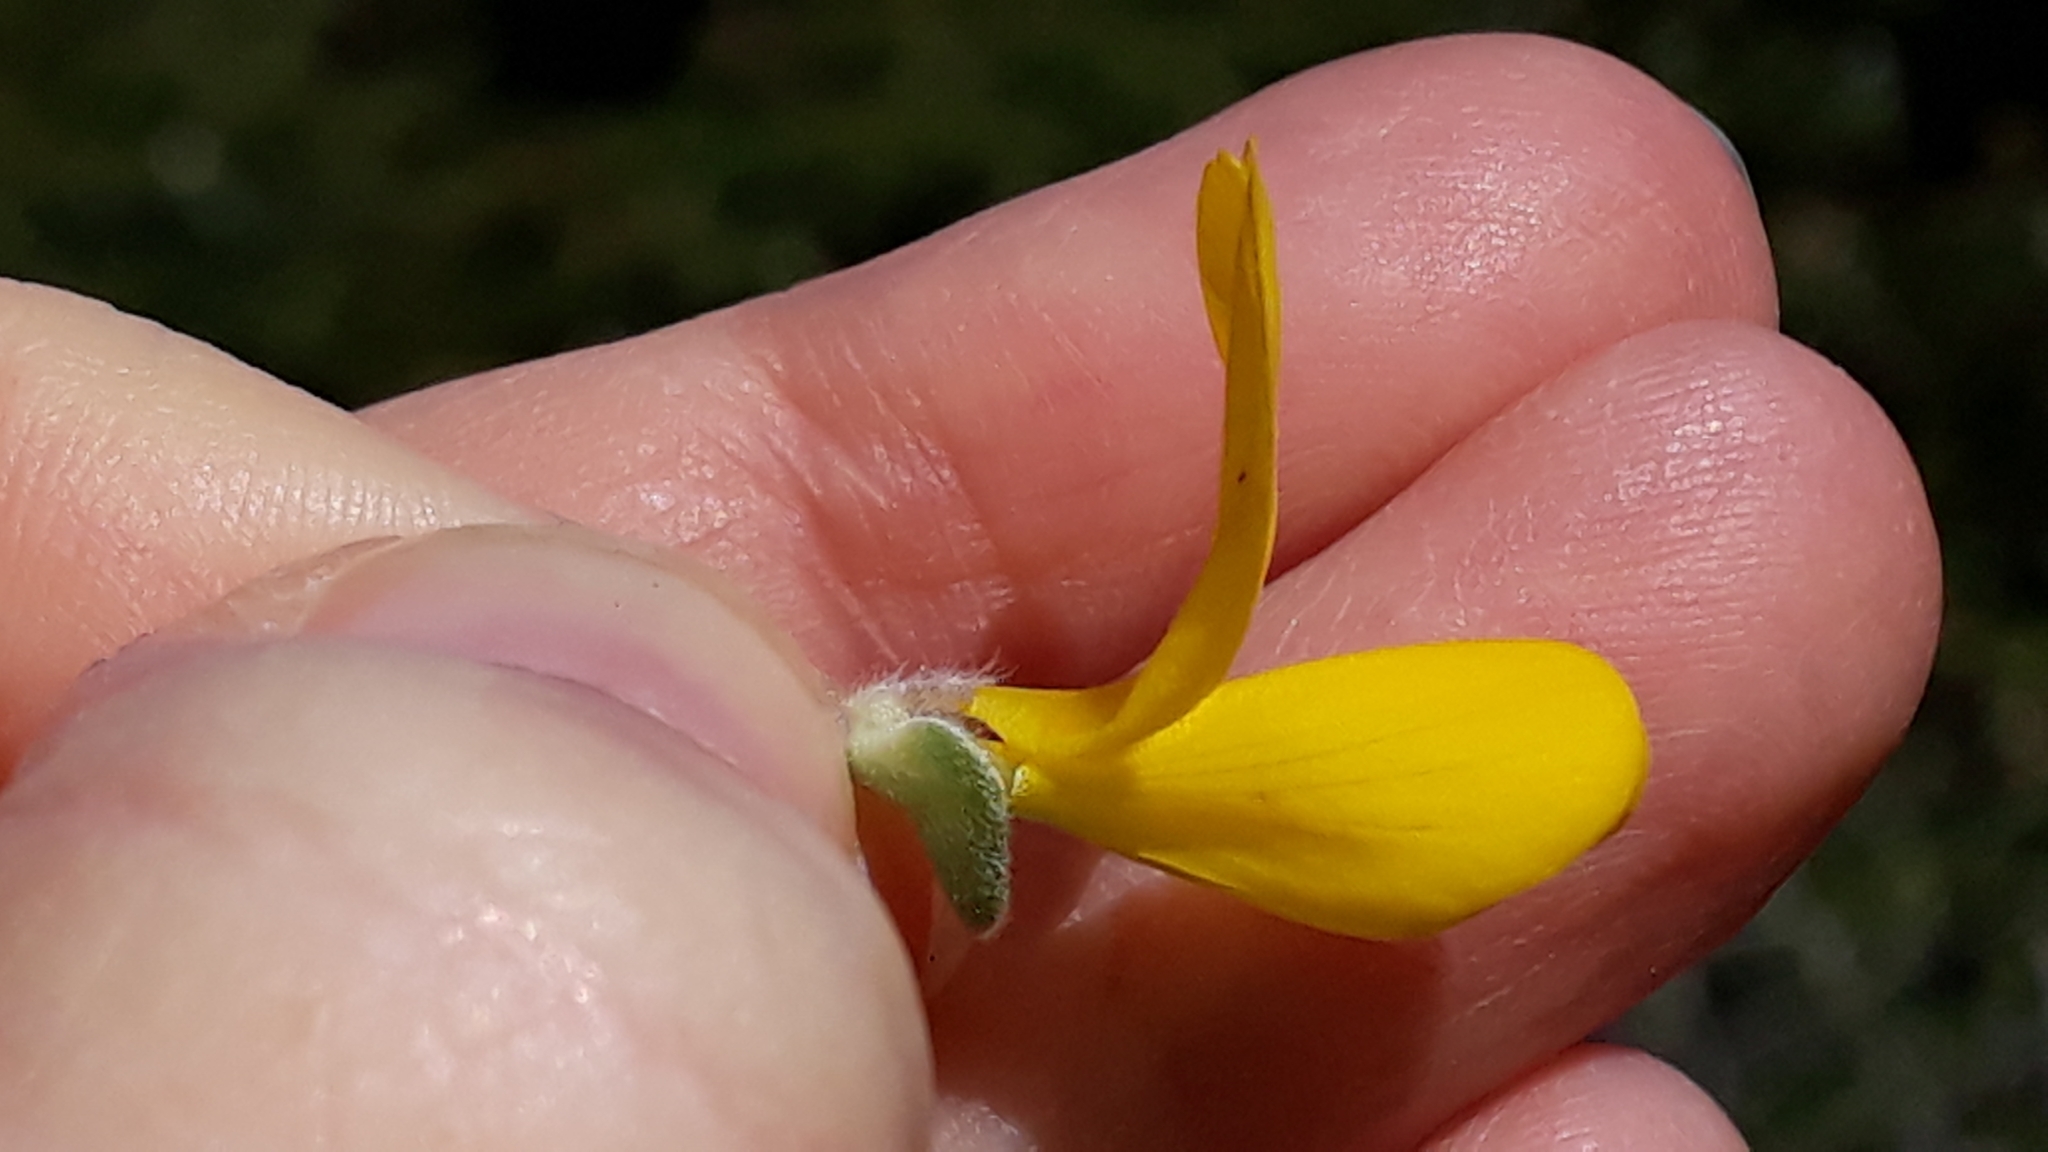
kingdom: Plantae
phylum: Tracheophyta
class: Magnoliopsida
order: Fabales
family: Fabaceae
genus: Calicotome
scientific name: Calicotome villosa
